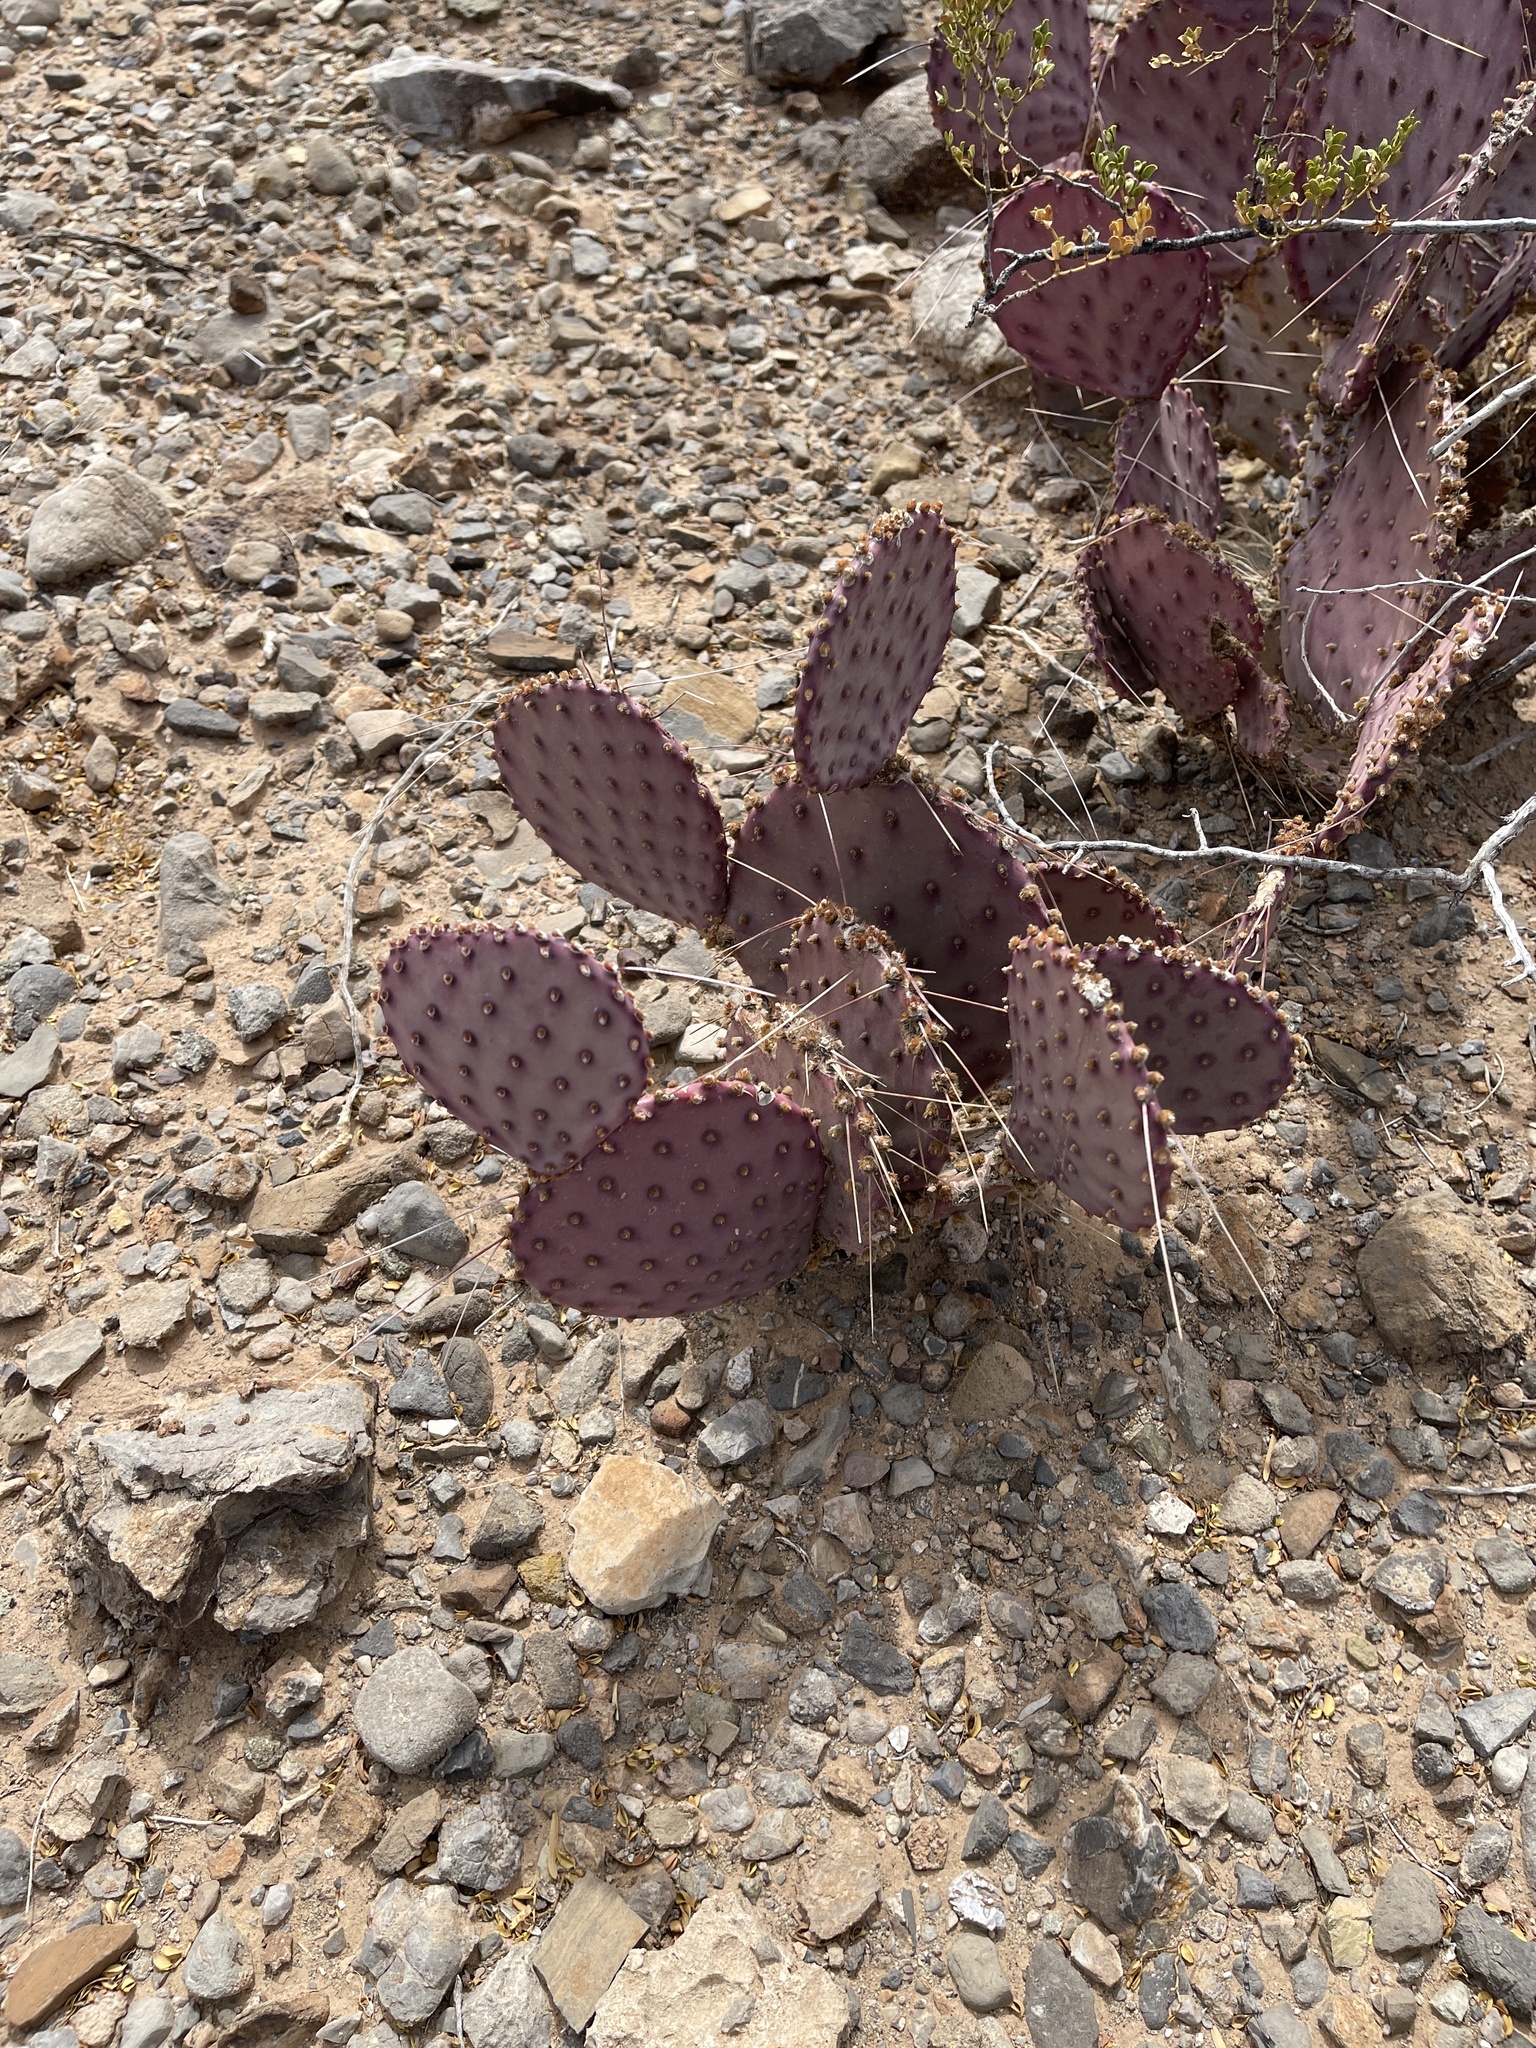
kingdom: Plantae
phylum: Tracheophyta
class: Magnoliopsida
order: Caryophyllales
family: Cactaceae
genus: Opuntia
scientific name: Opuntia macrocentra
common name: Purple prickly-pear
